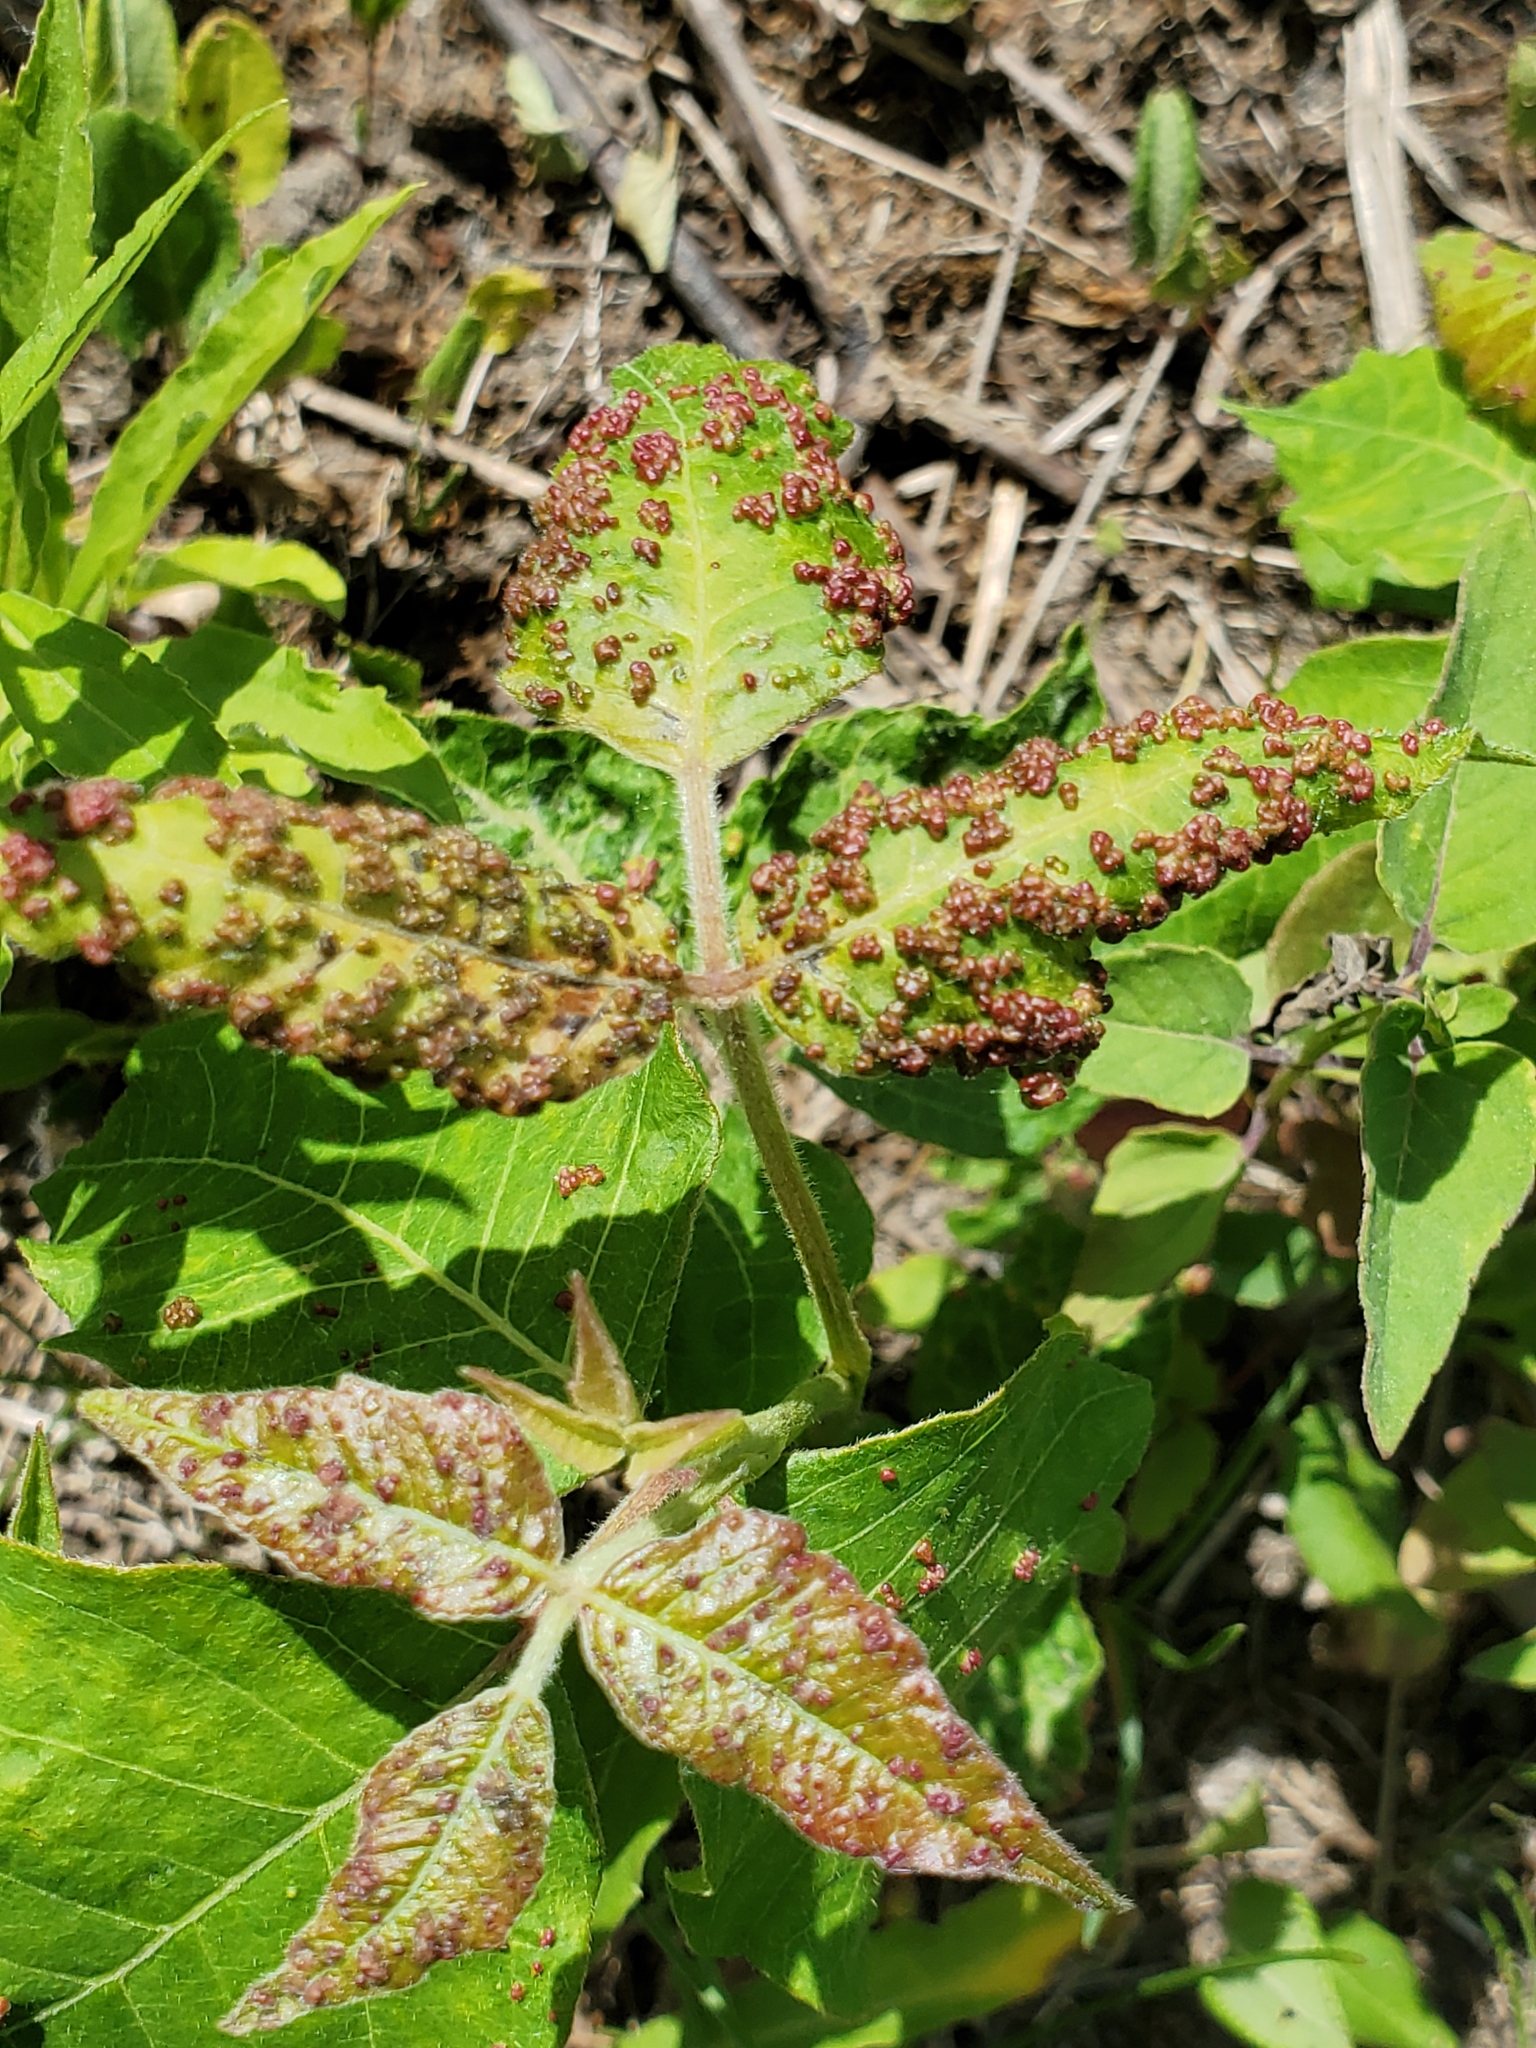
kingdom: Animalia
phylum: Arthropoda
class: Arachnida
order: Trombidiformes
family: Eriophyidae
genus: Aculops
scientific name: Aculops
